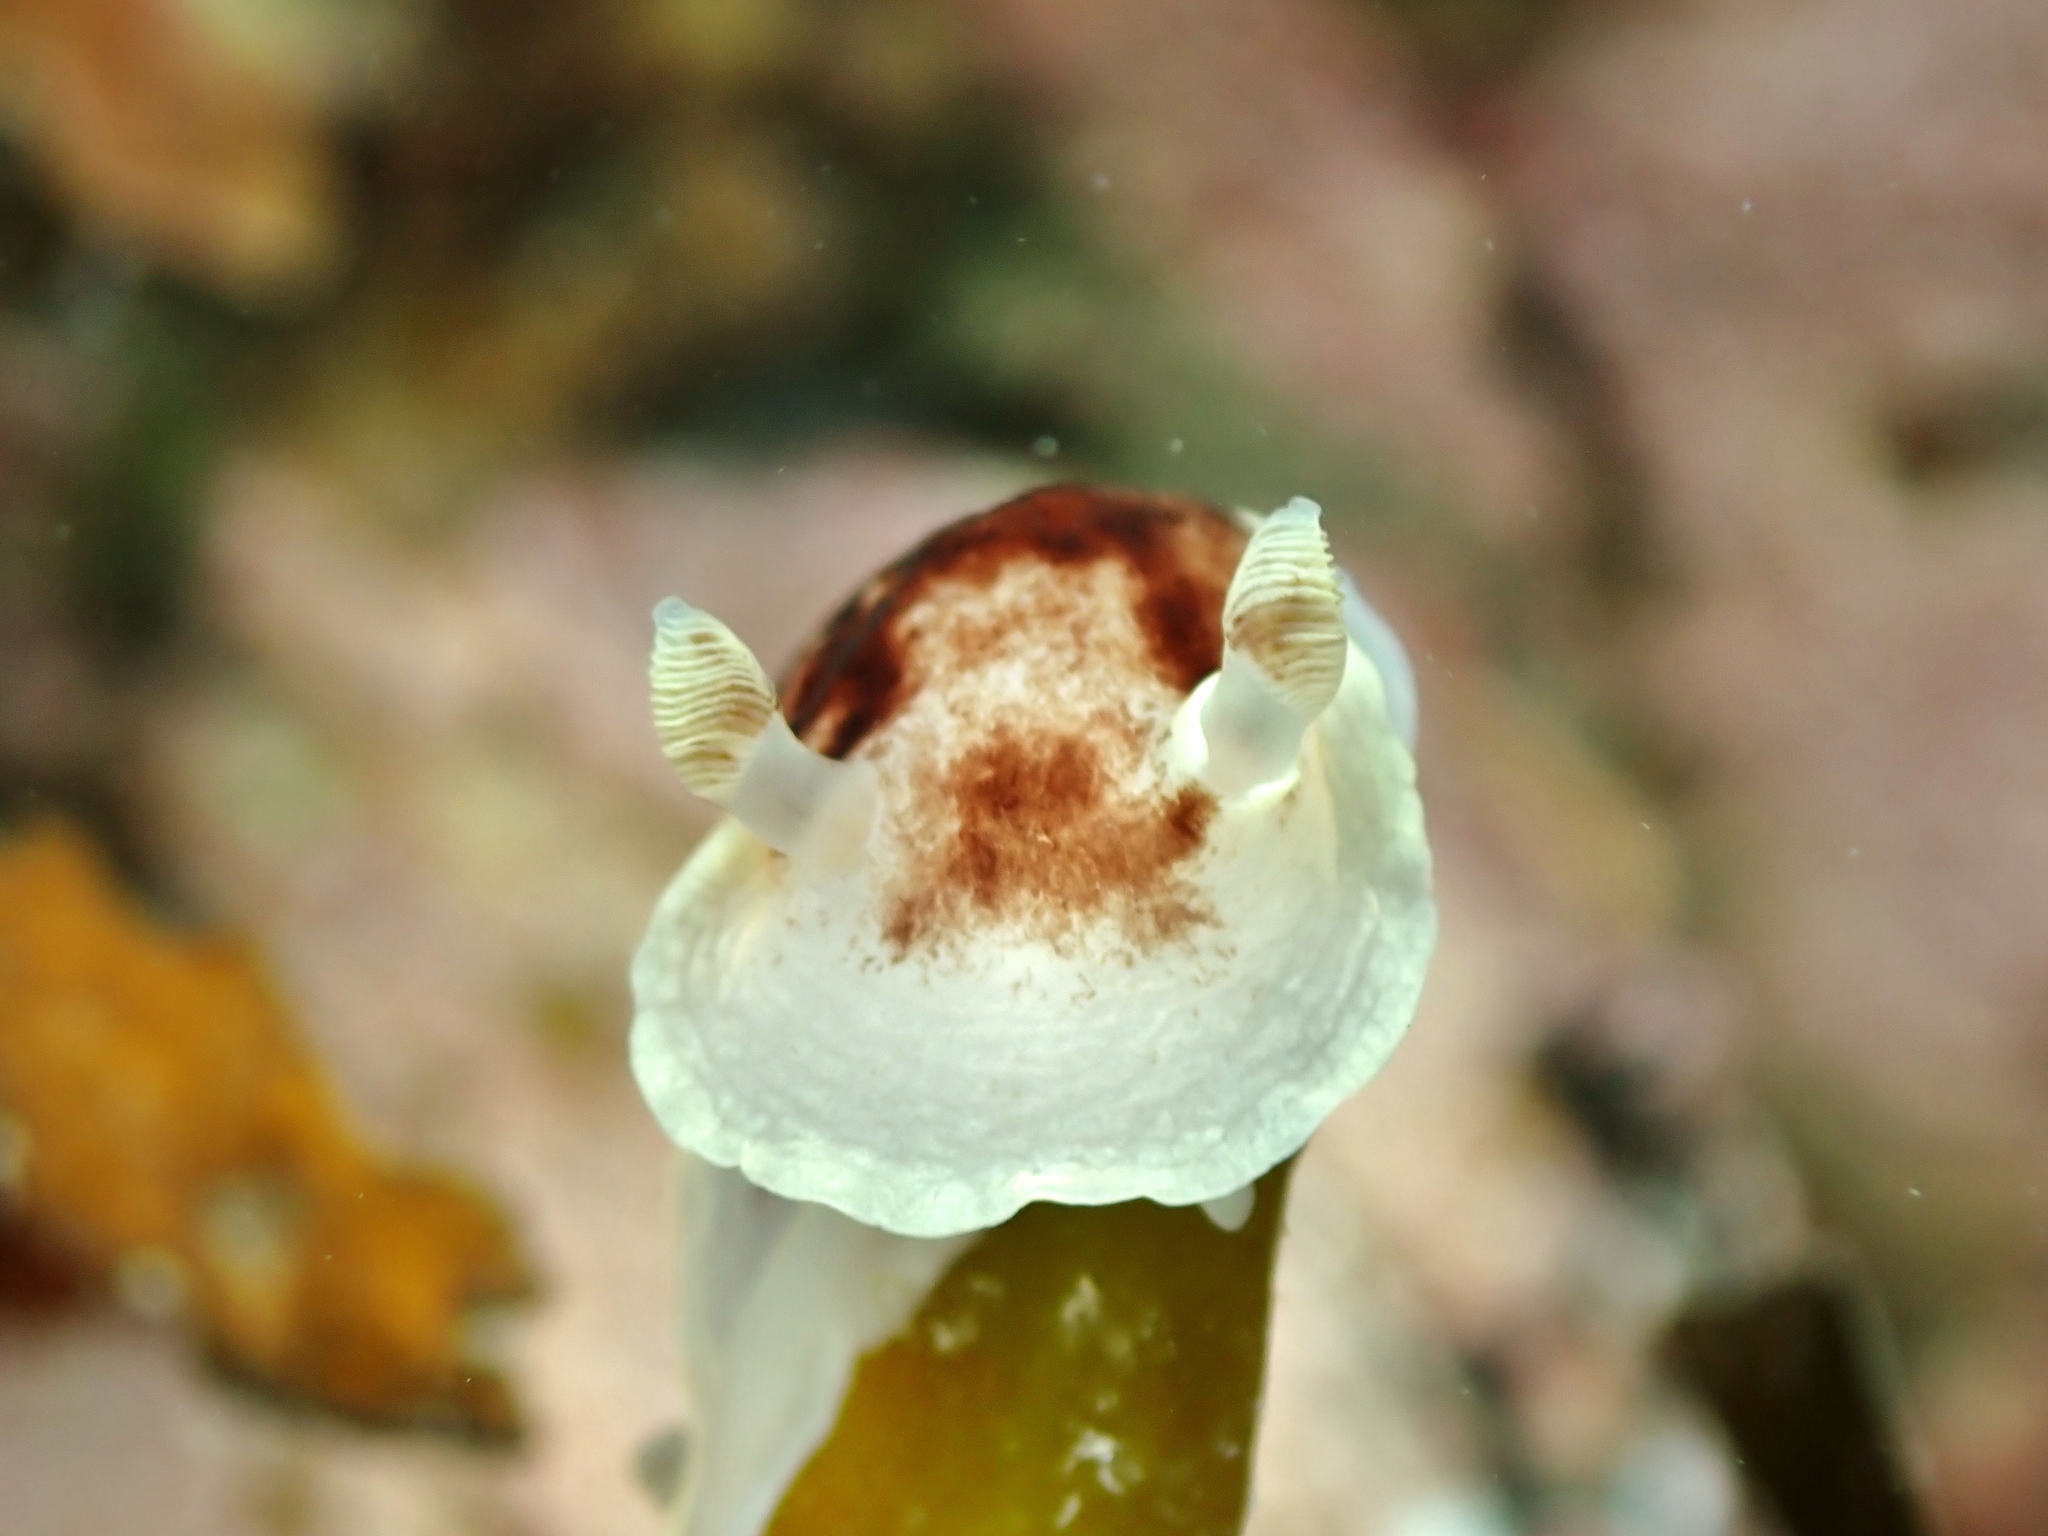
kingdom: Animalia
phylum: Mollusca
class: Gastropoda
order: Nudibranchia
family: Dorididae
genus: Aphelodoris
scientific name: Aphelodoris luctuosa
